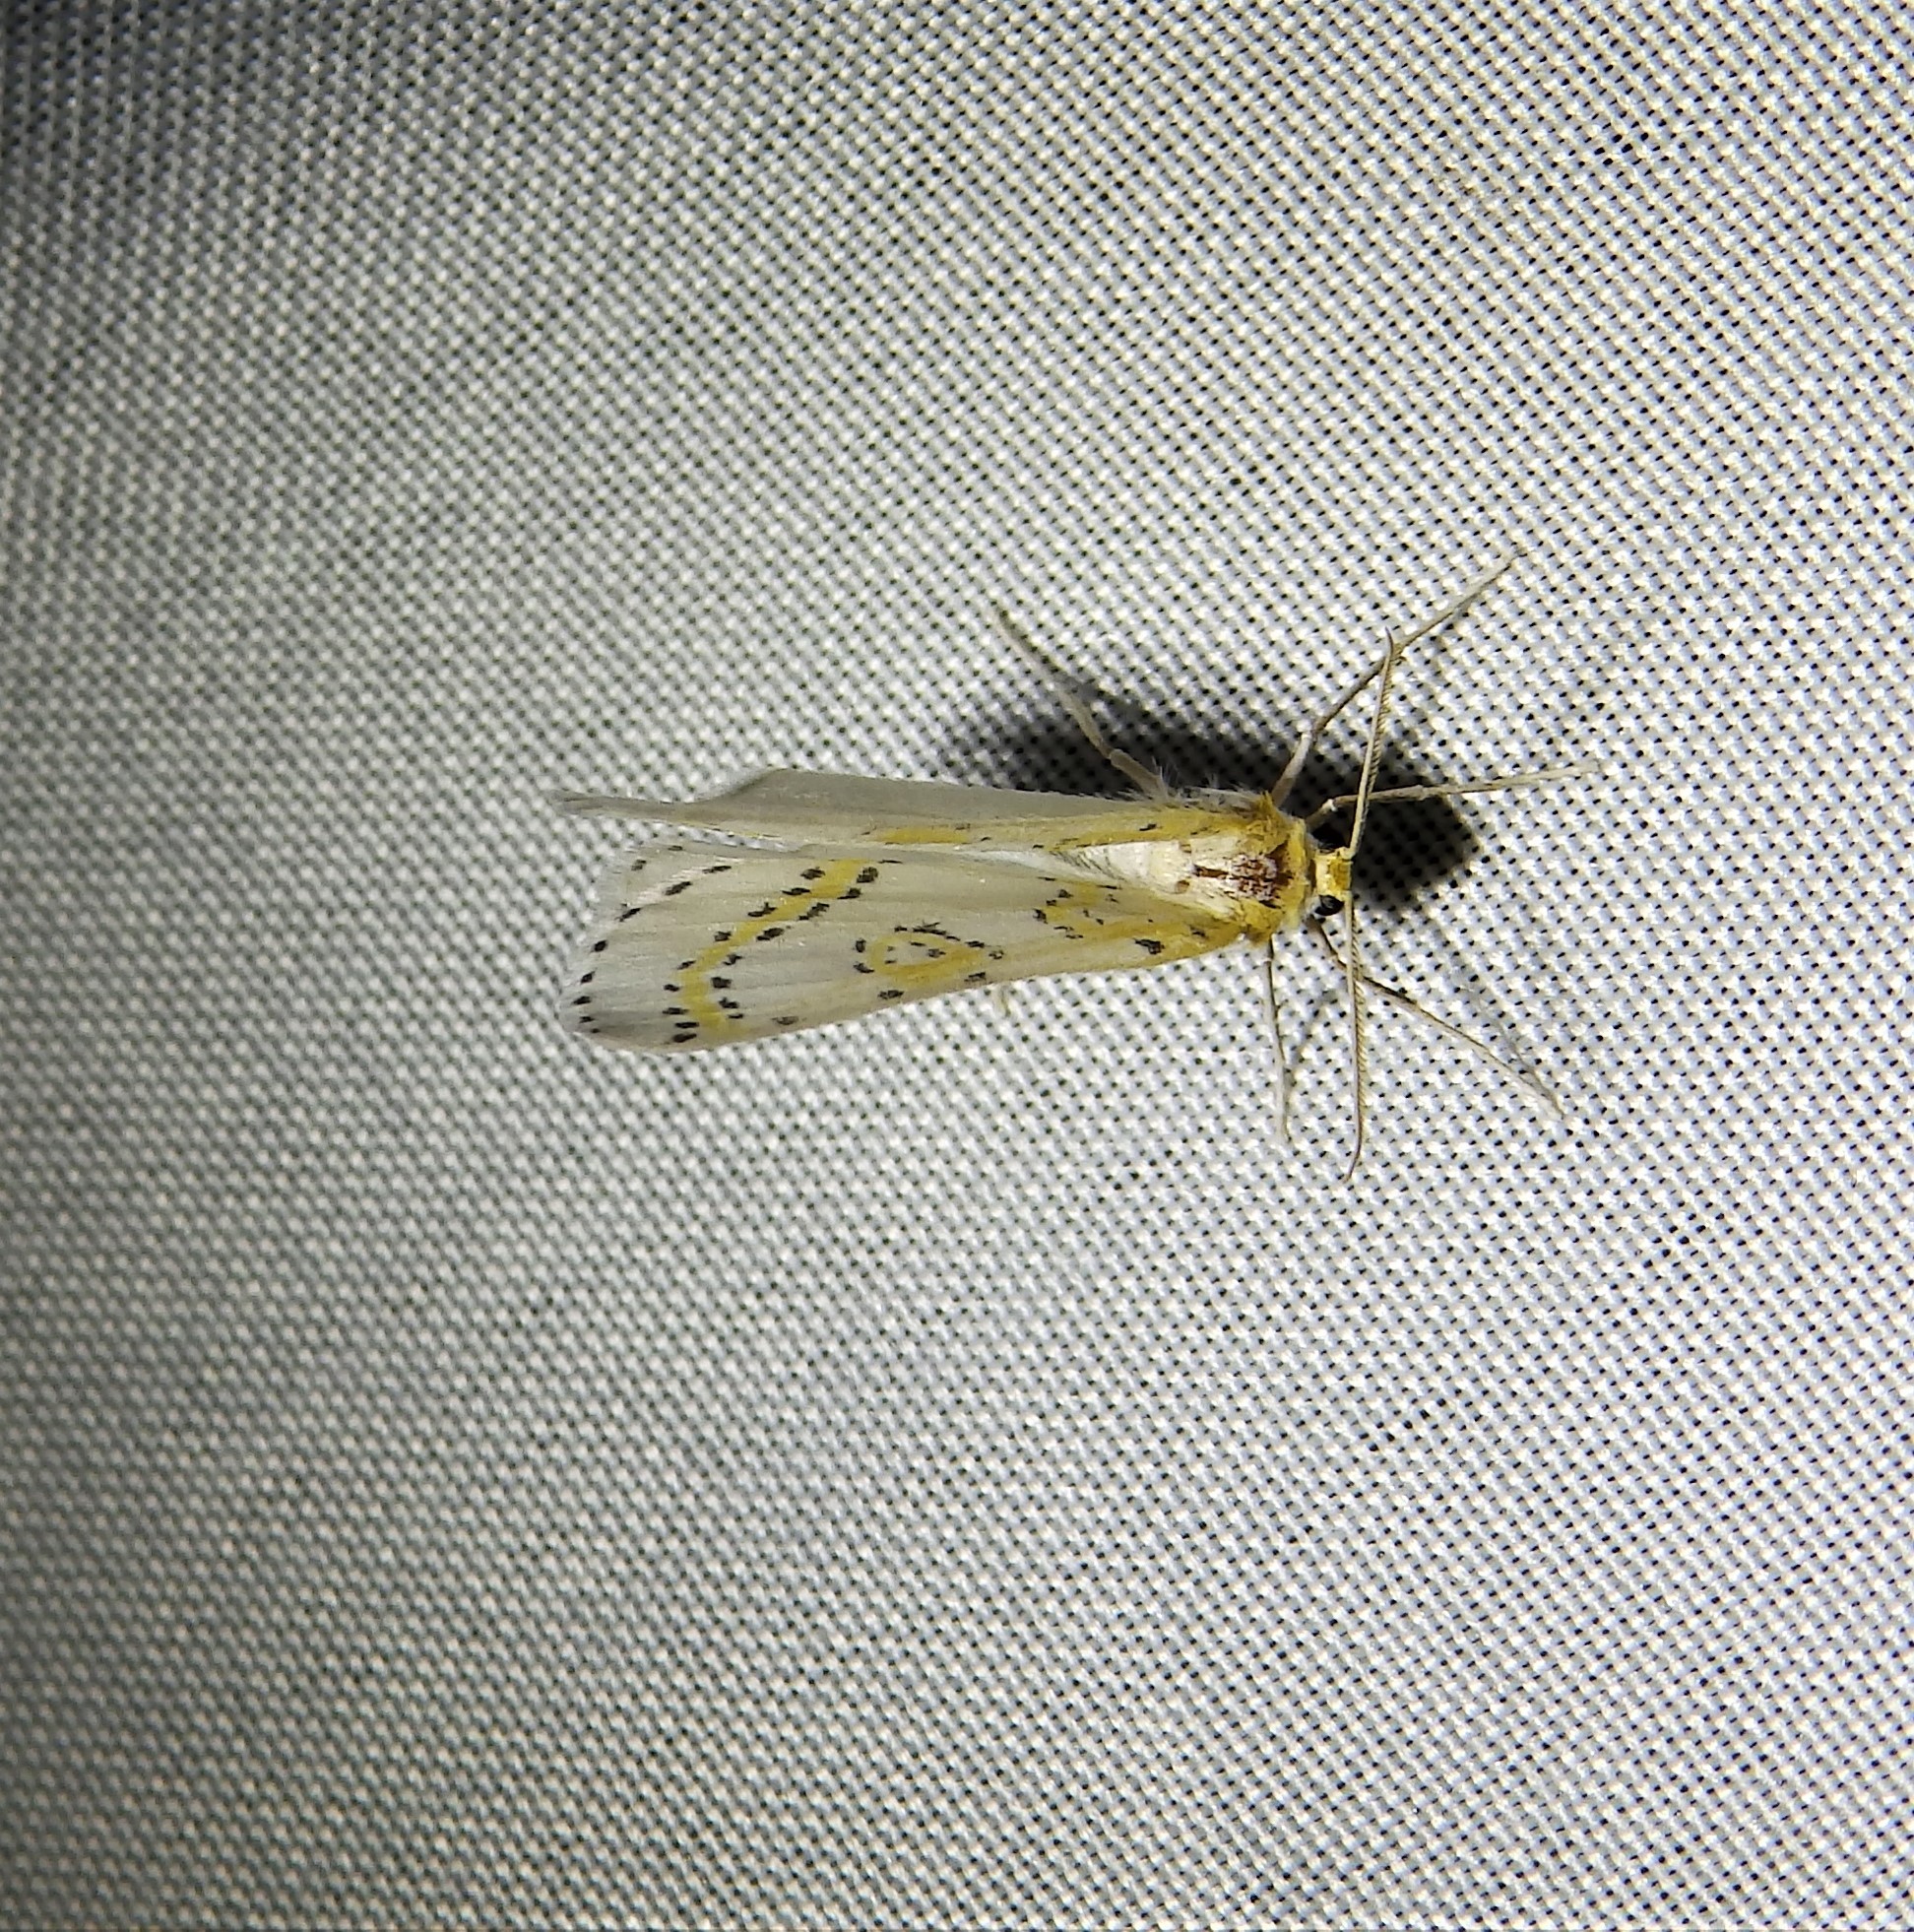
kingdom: Animalia
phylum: Arthropoda
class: Insecta
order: Lepidoptera
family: Geometridae
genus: Philtraea
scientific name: Philtraea monillata
